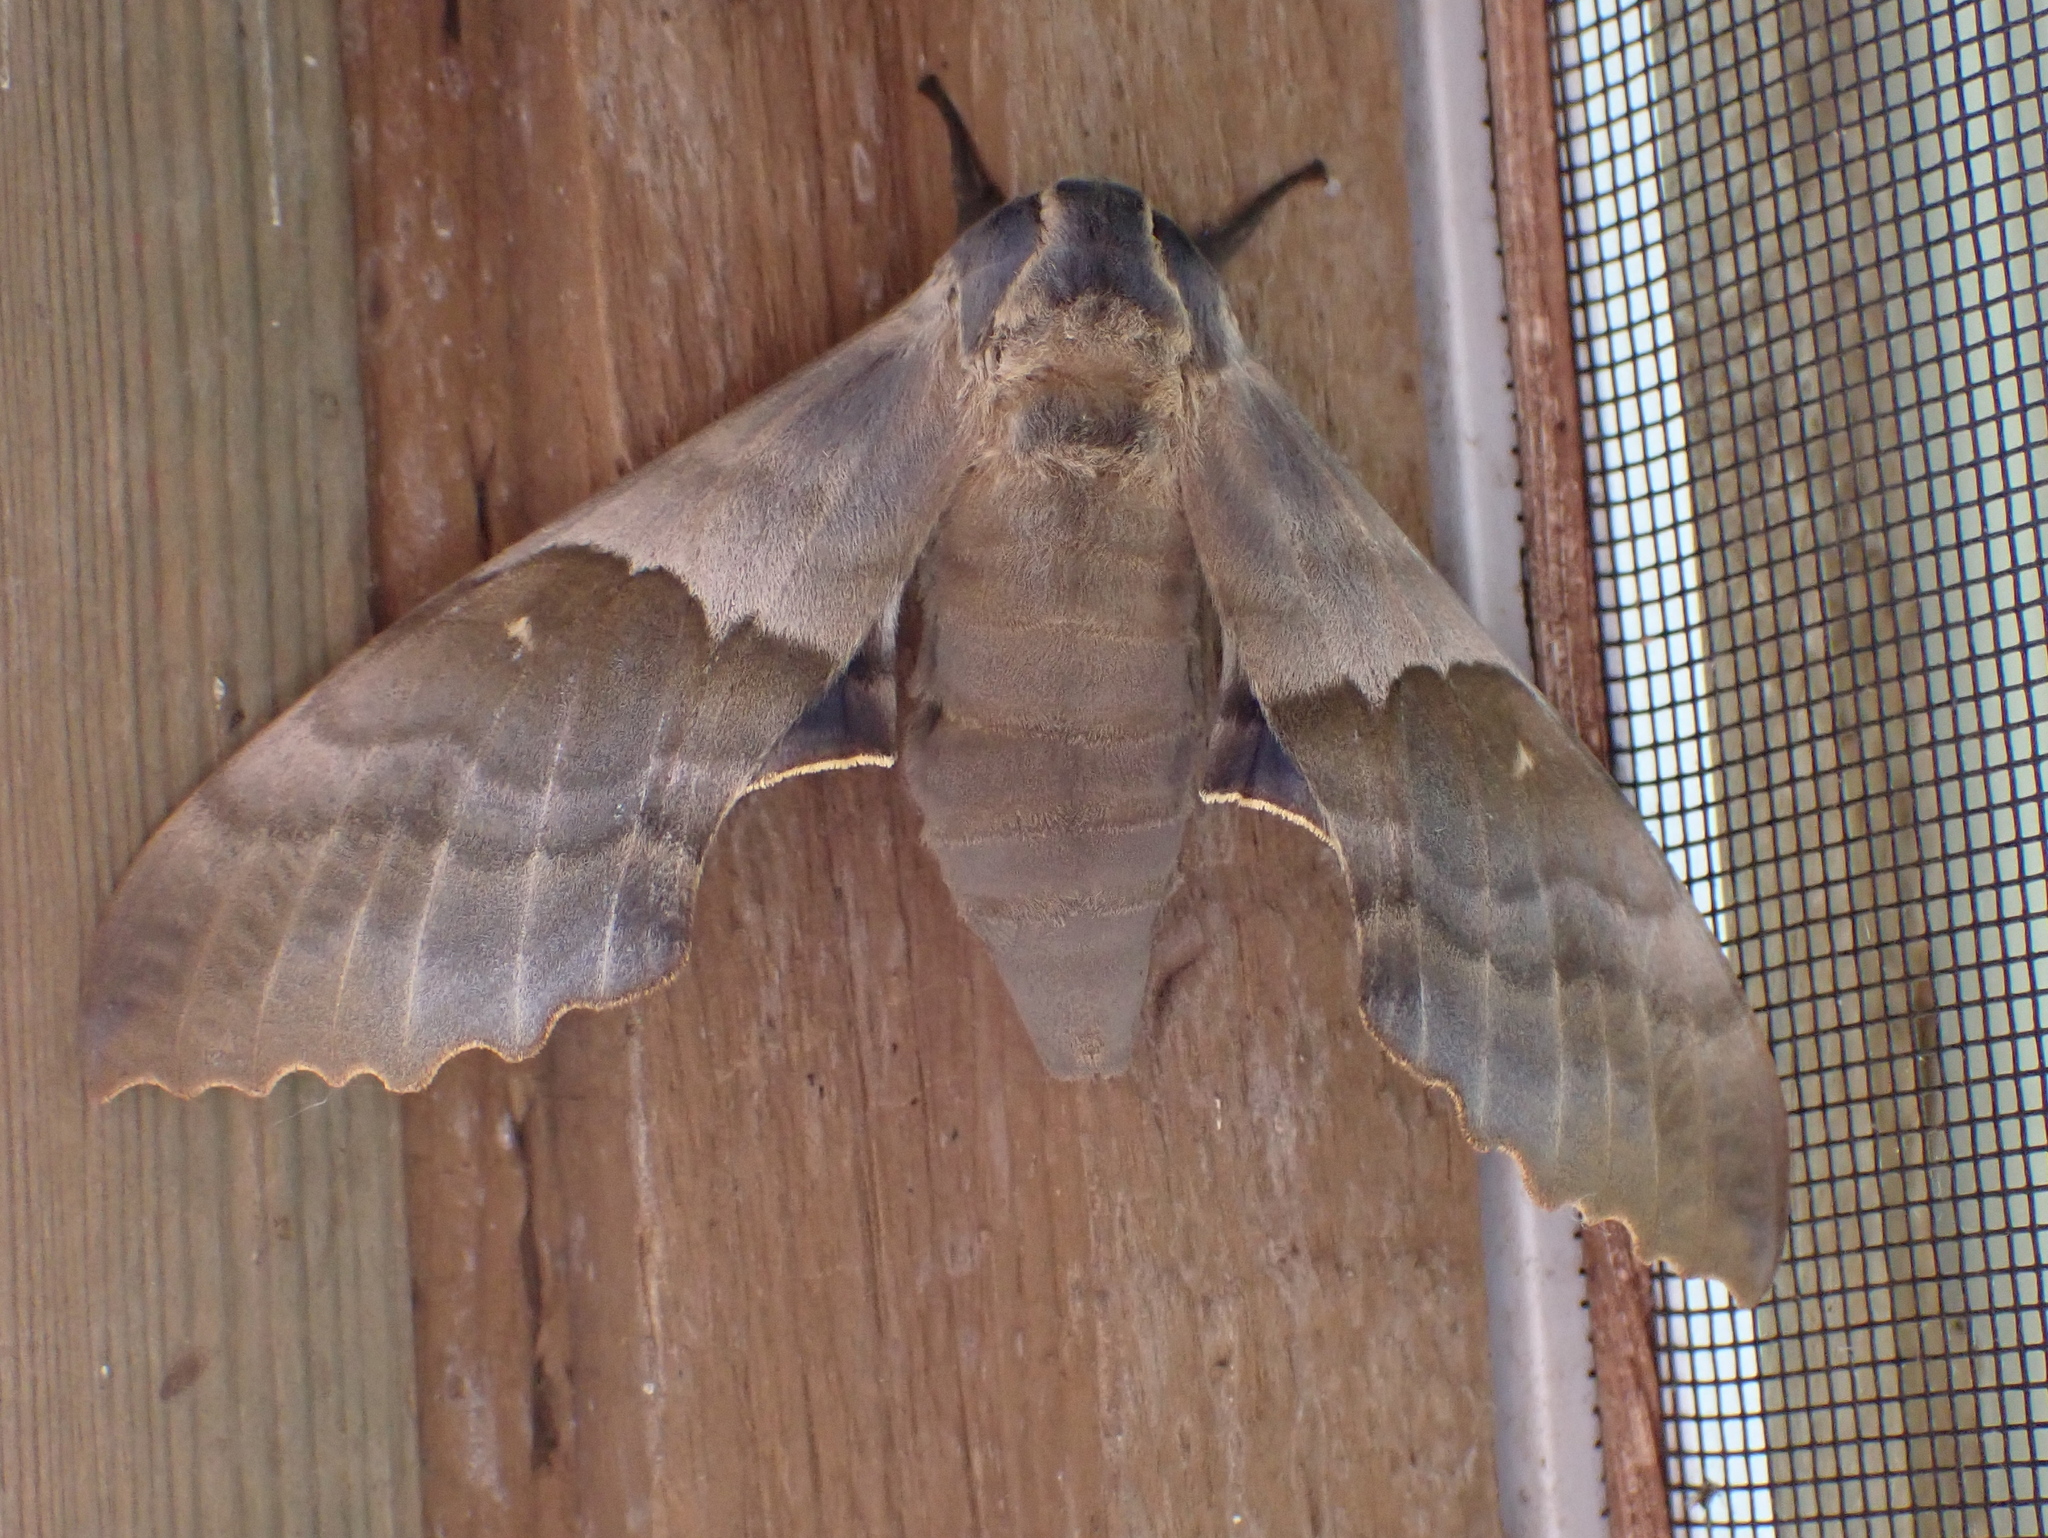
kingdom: Animalia
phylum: Arthropoda
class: Insecta
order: Lepidoptera
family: Sphingidae
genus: Pachysphinx
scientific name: Pachysphinx modesta
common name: Big poplar sphinx
